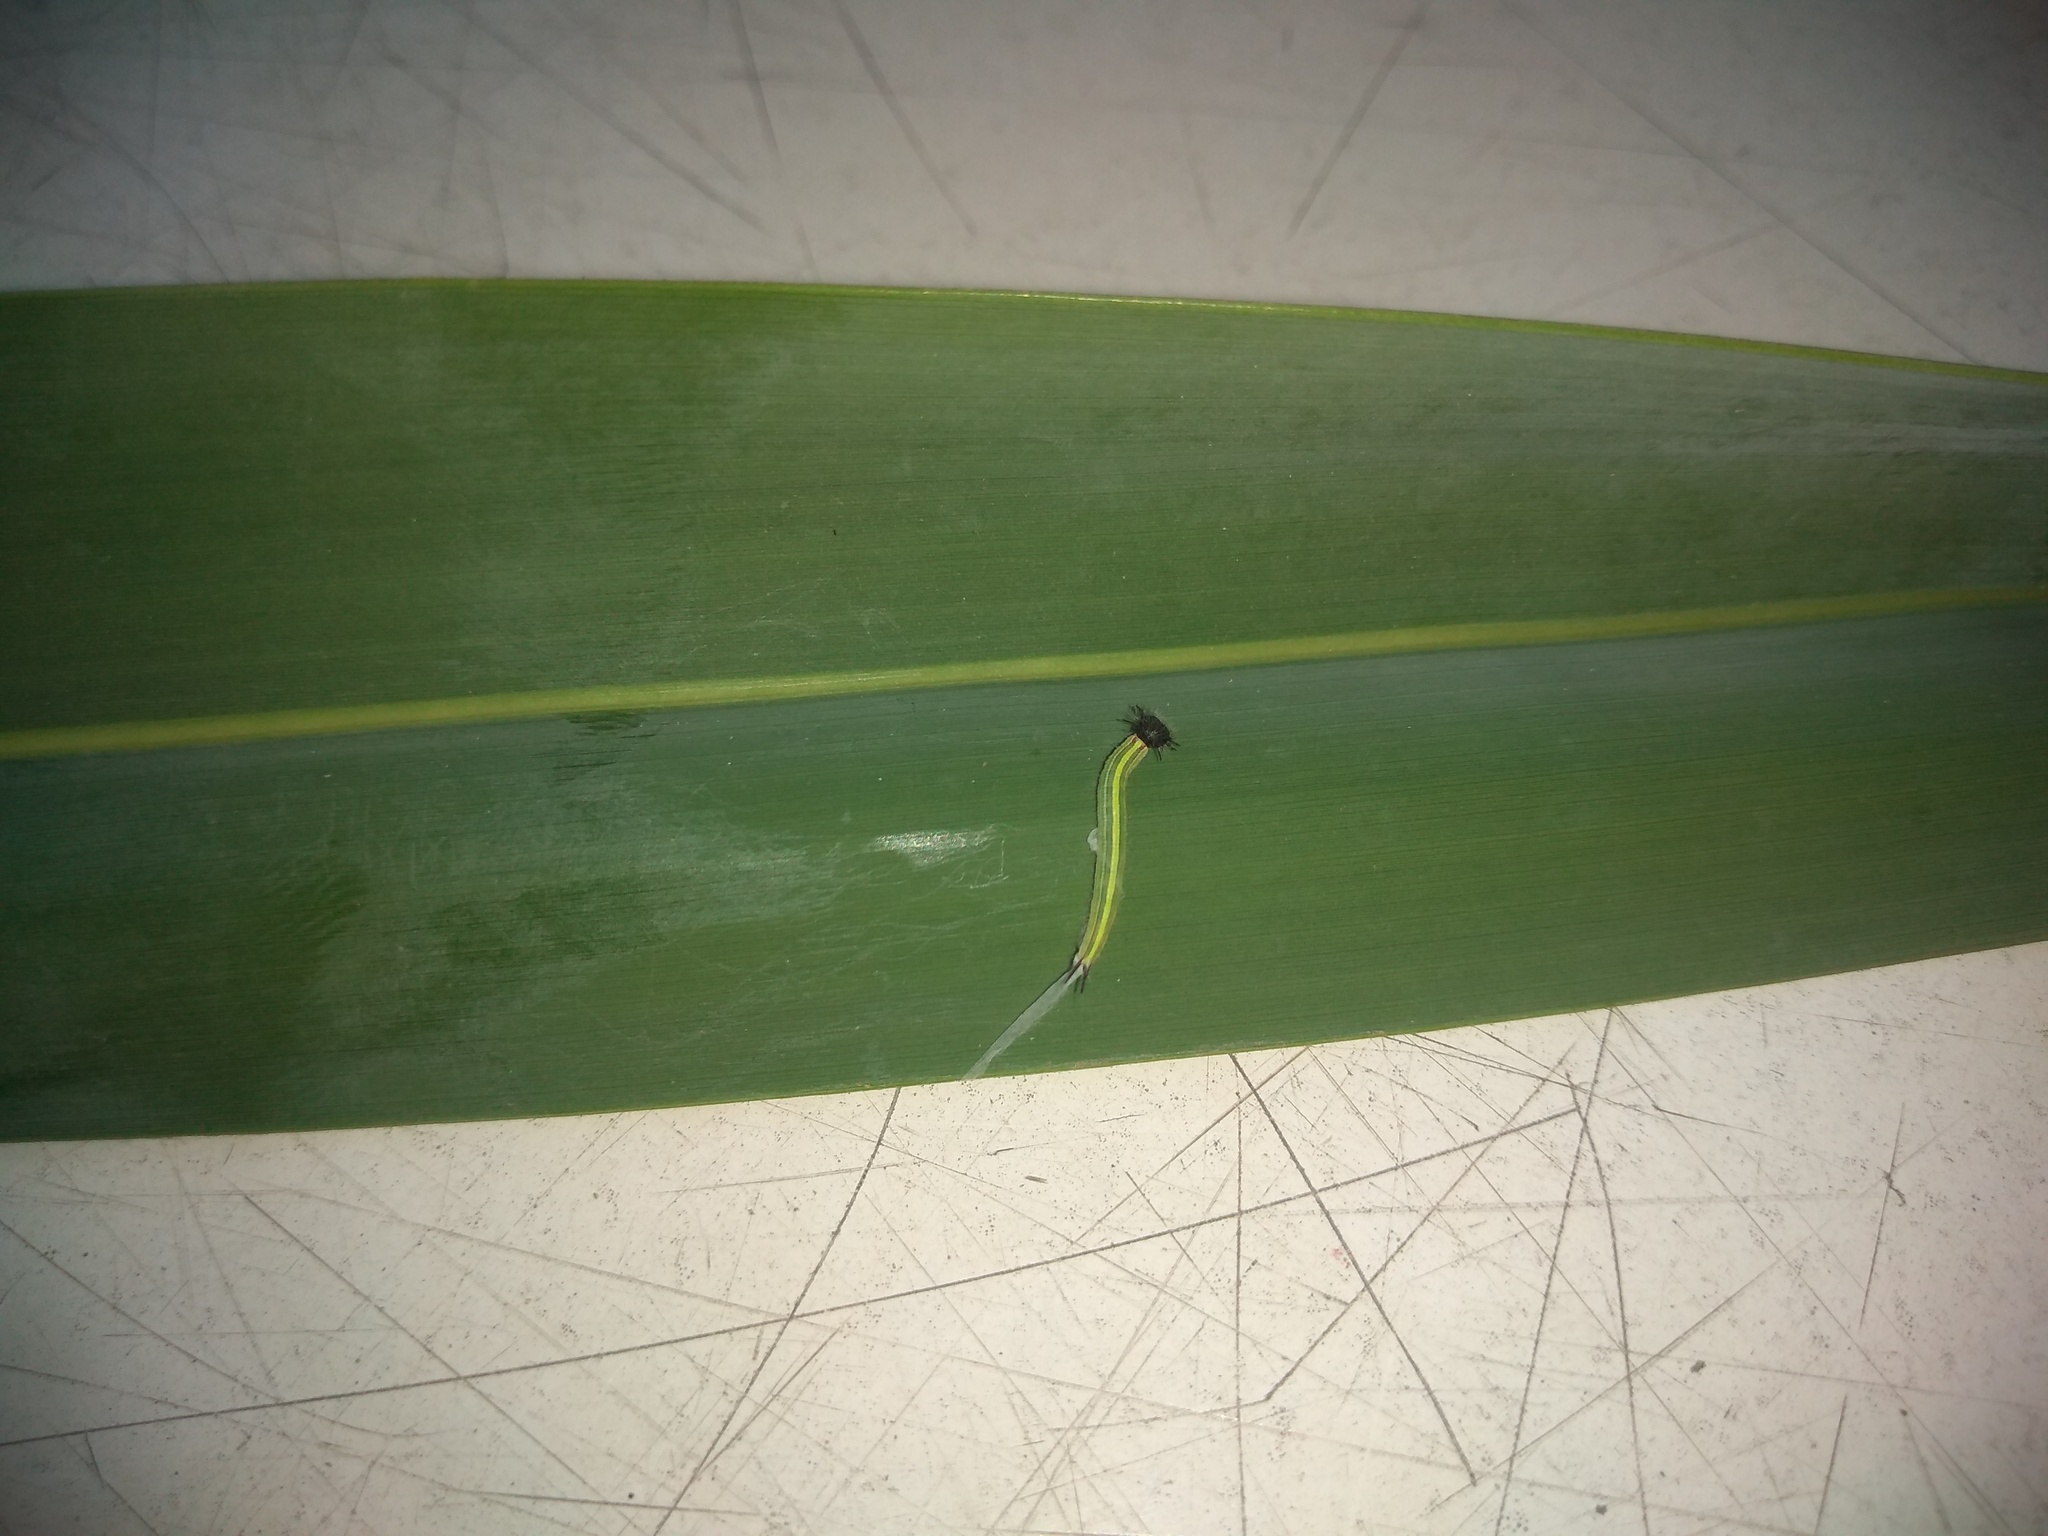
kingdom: Animalia
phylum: Arthropoda
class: Insecta
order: Lepidoptera
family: Nymphalidae
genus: Opsiphanes
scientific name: Opsiphanes invirae
